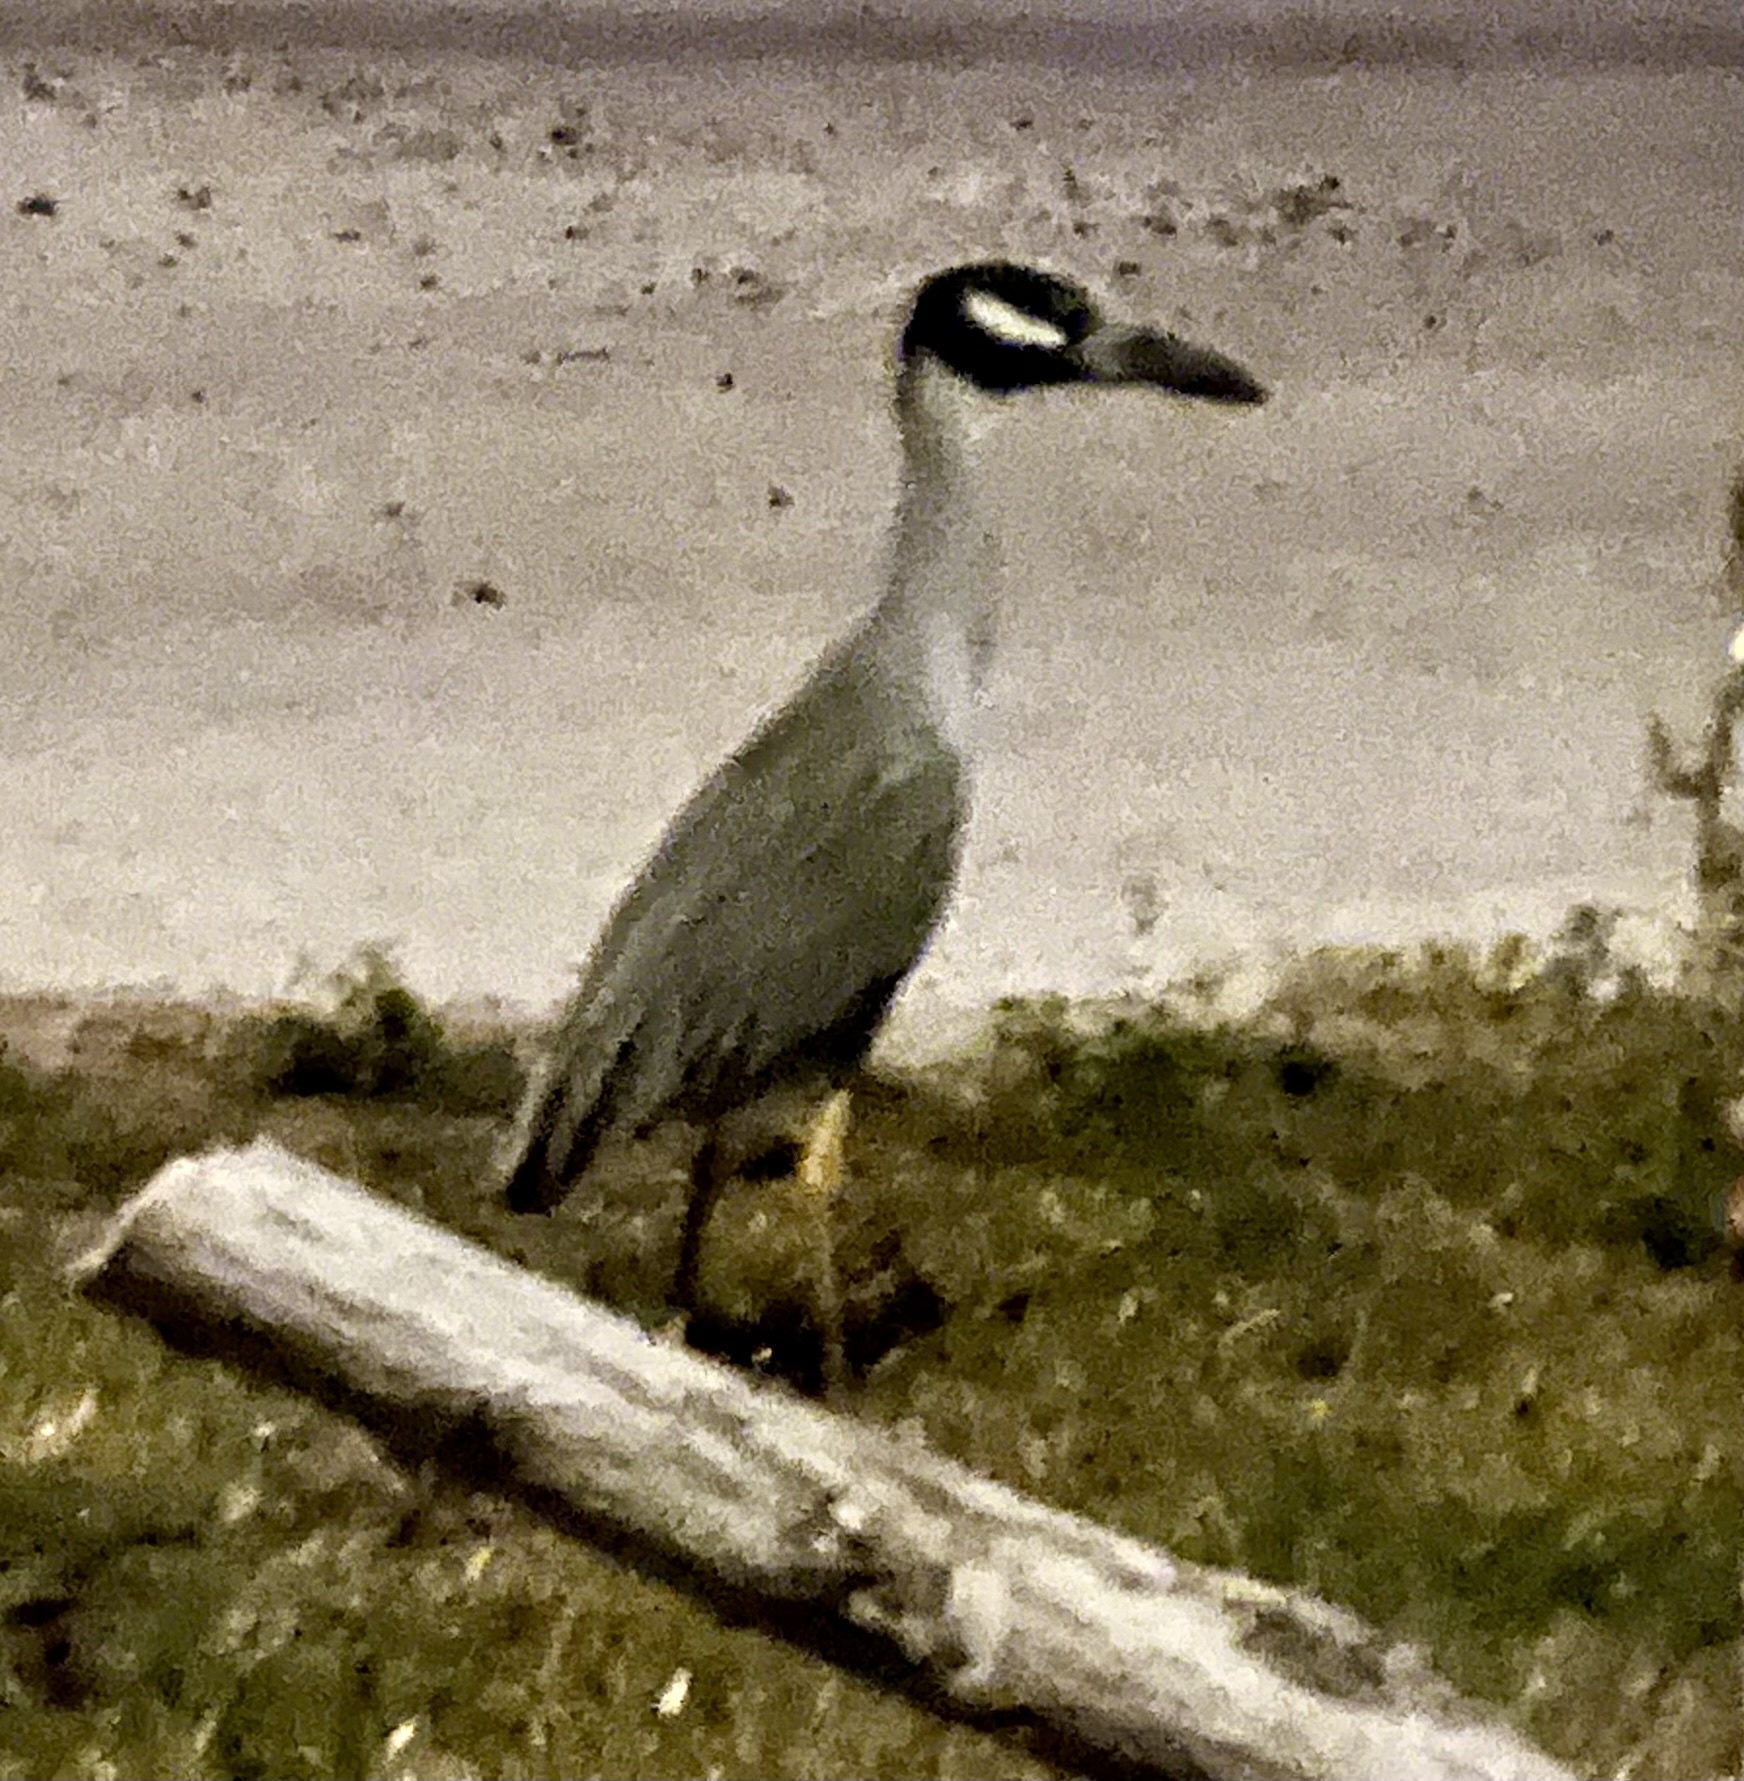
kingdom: Animalia
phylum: Chordata
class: Aves
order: Pelecaniformes
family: Ardeidae
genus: Nyctanassa
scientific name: Nyctanassa violacea
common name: Yellow-crowned night heron
